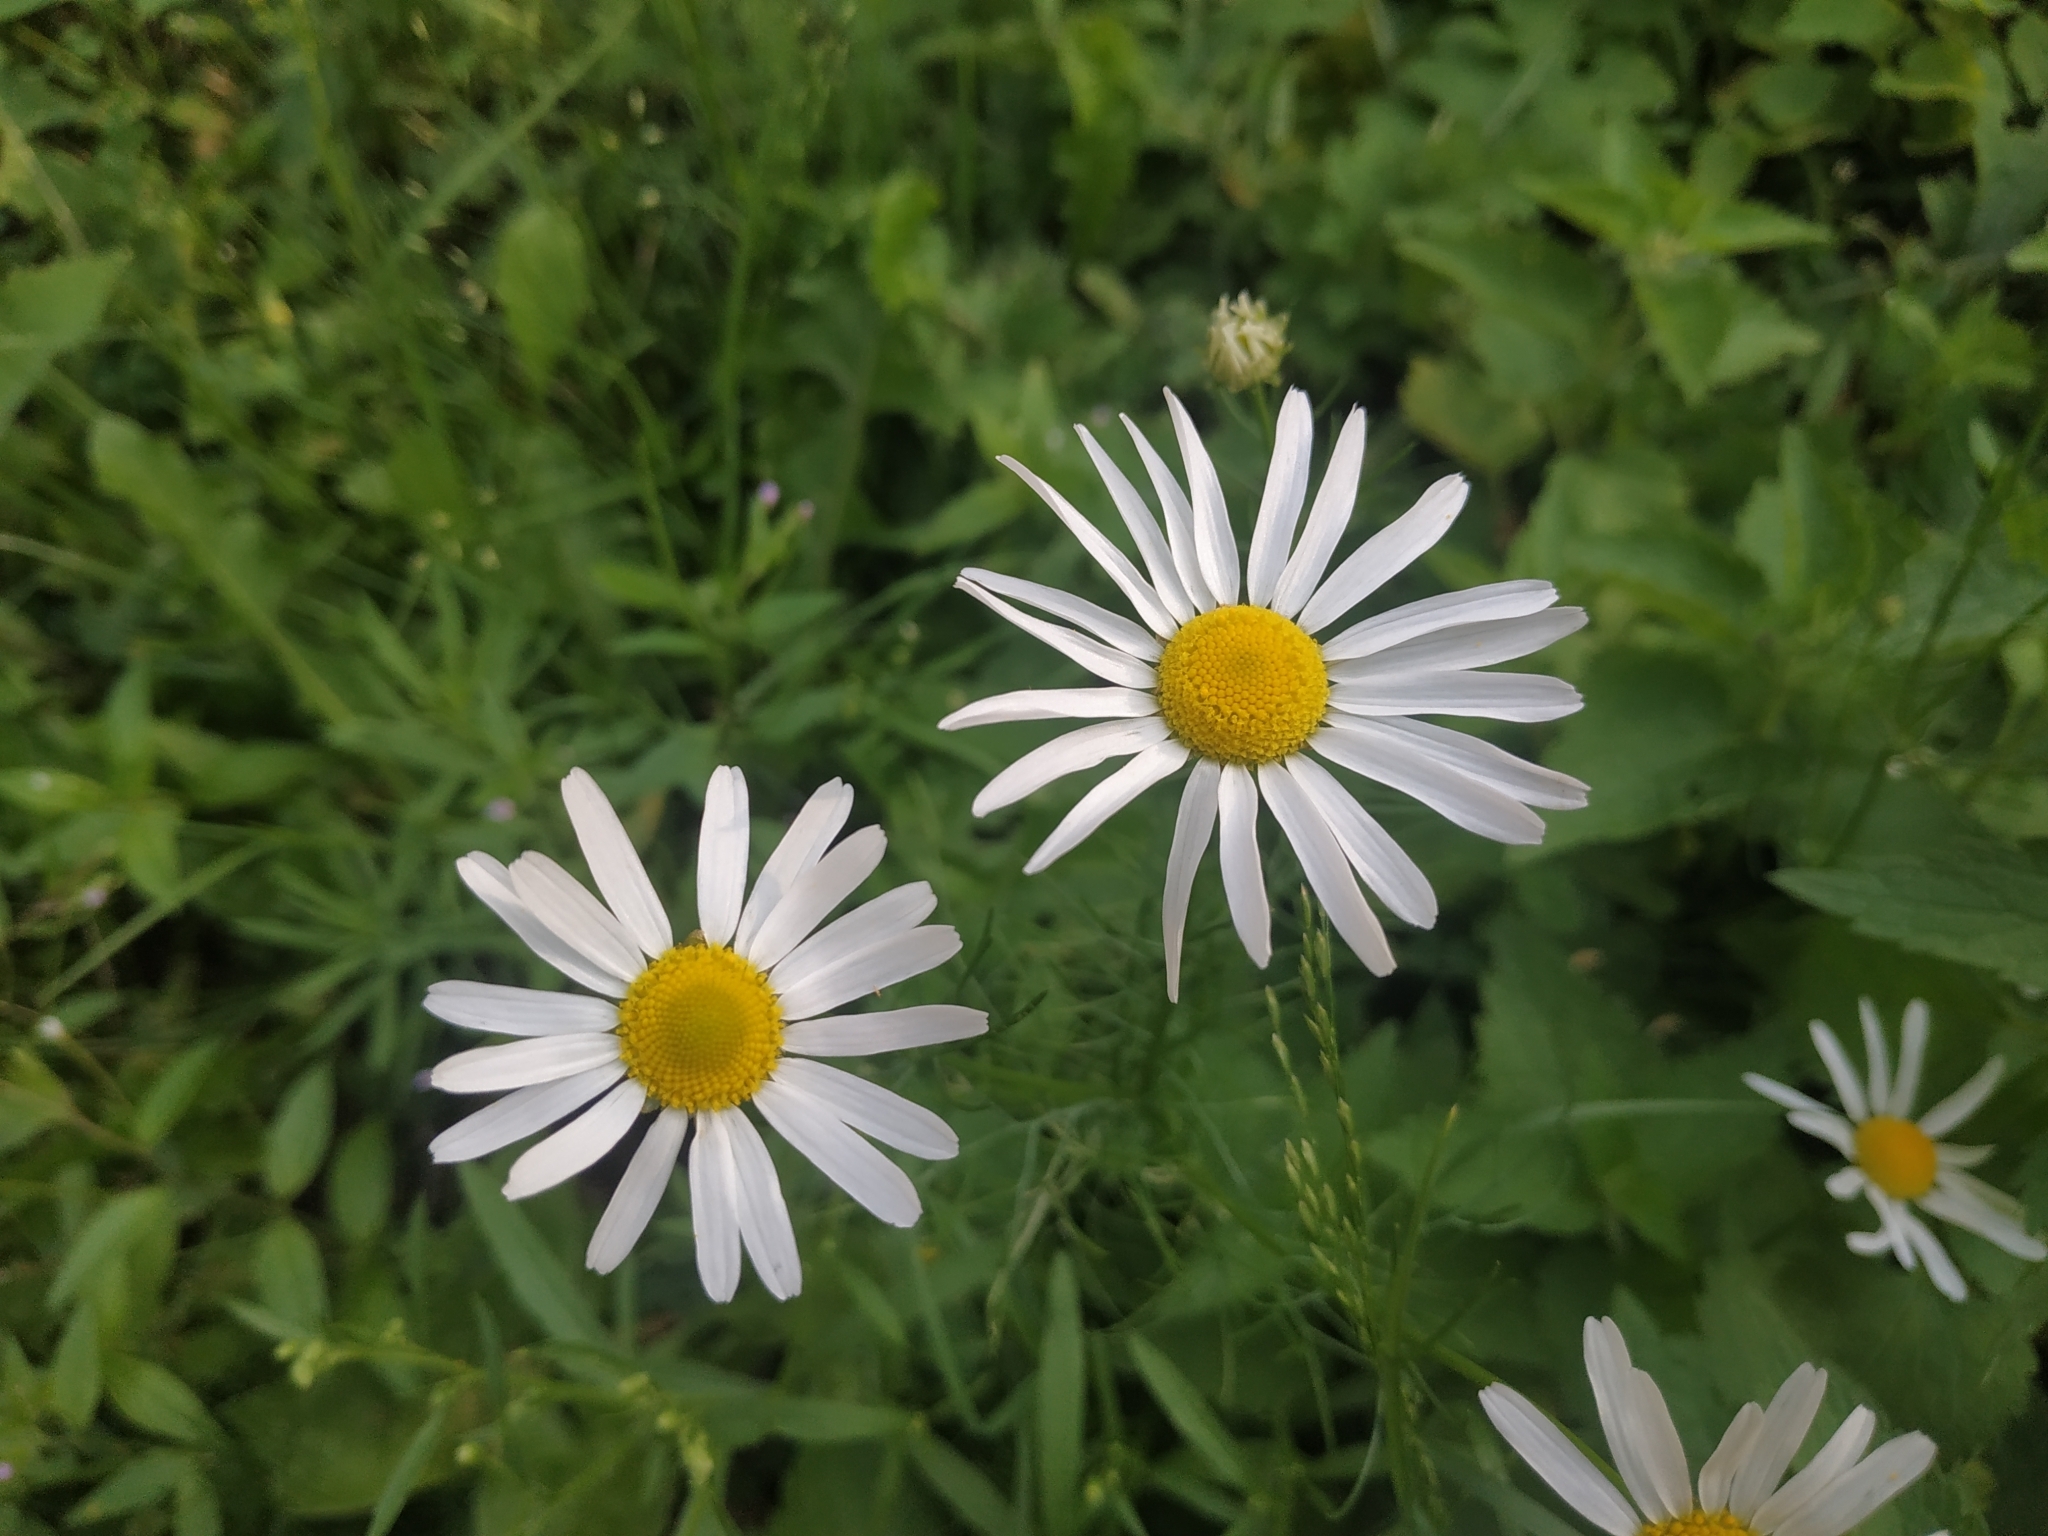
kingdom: Plantae
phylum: Tracheophyta
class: Magnoliopsida
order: Asterales
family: Asteraceae
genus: Tripleurospermum
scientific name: Tripleurospermum inodorum
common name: Scentless mayweed
